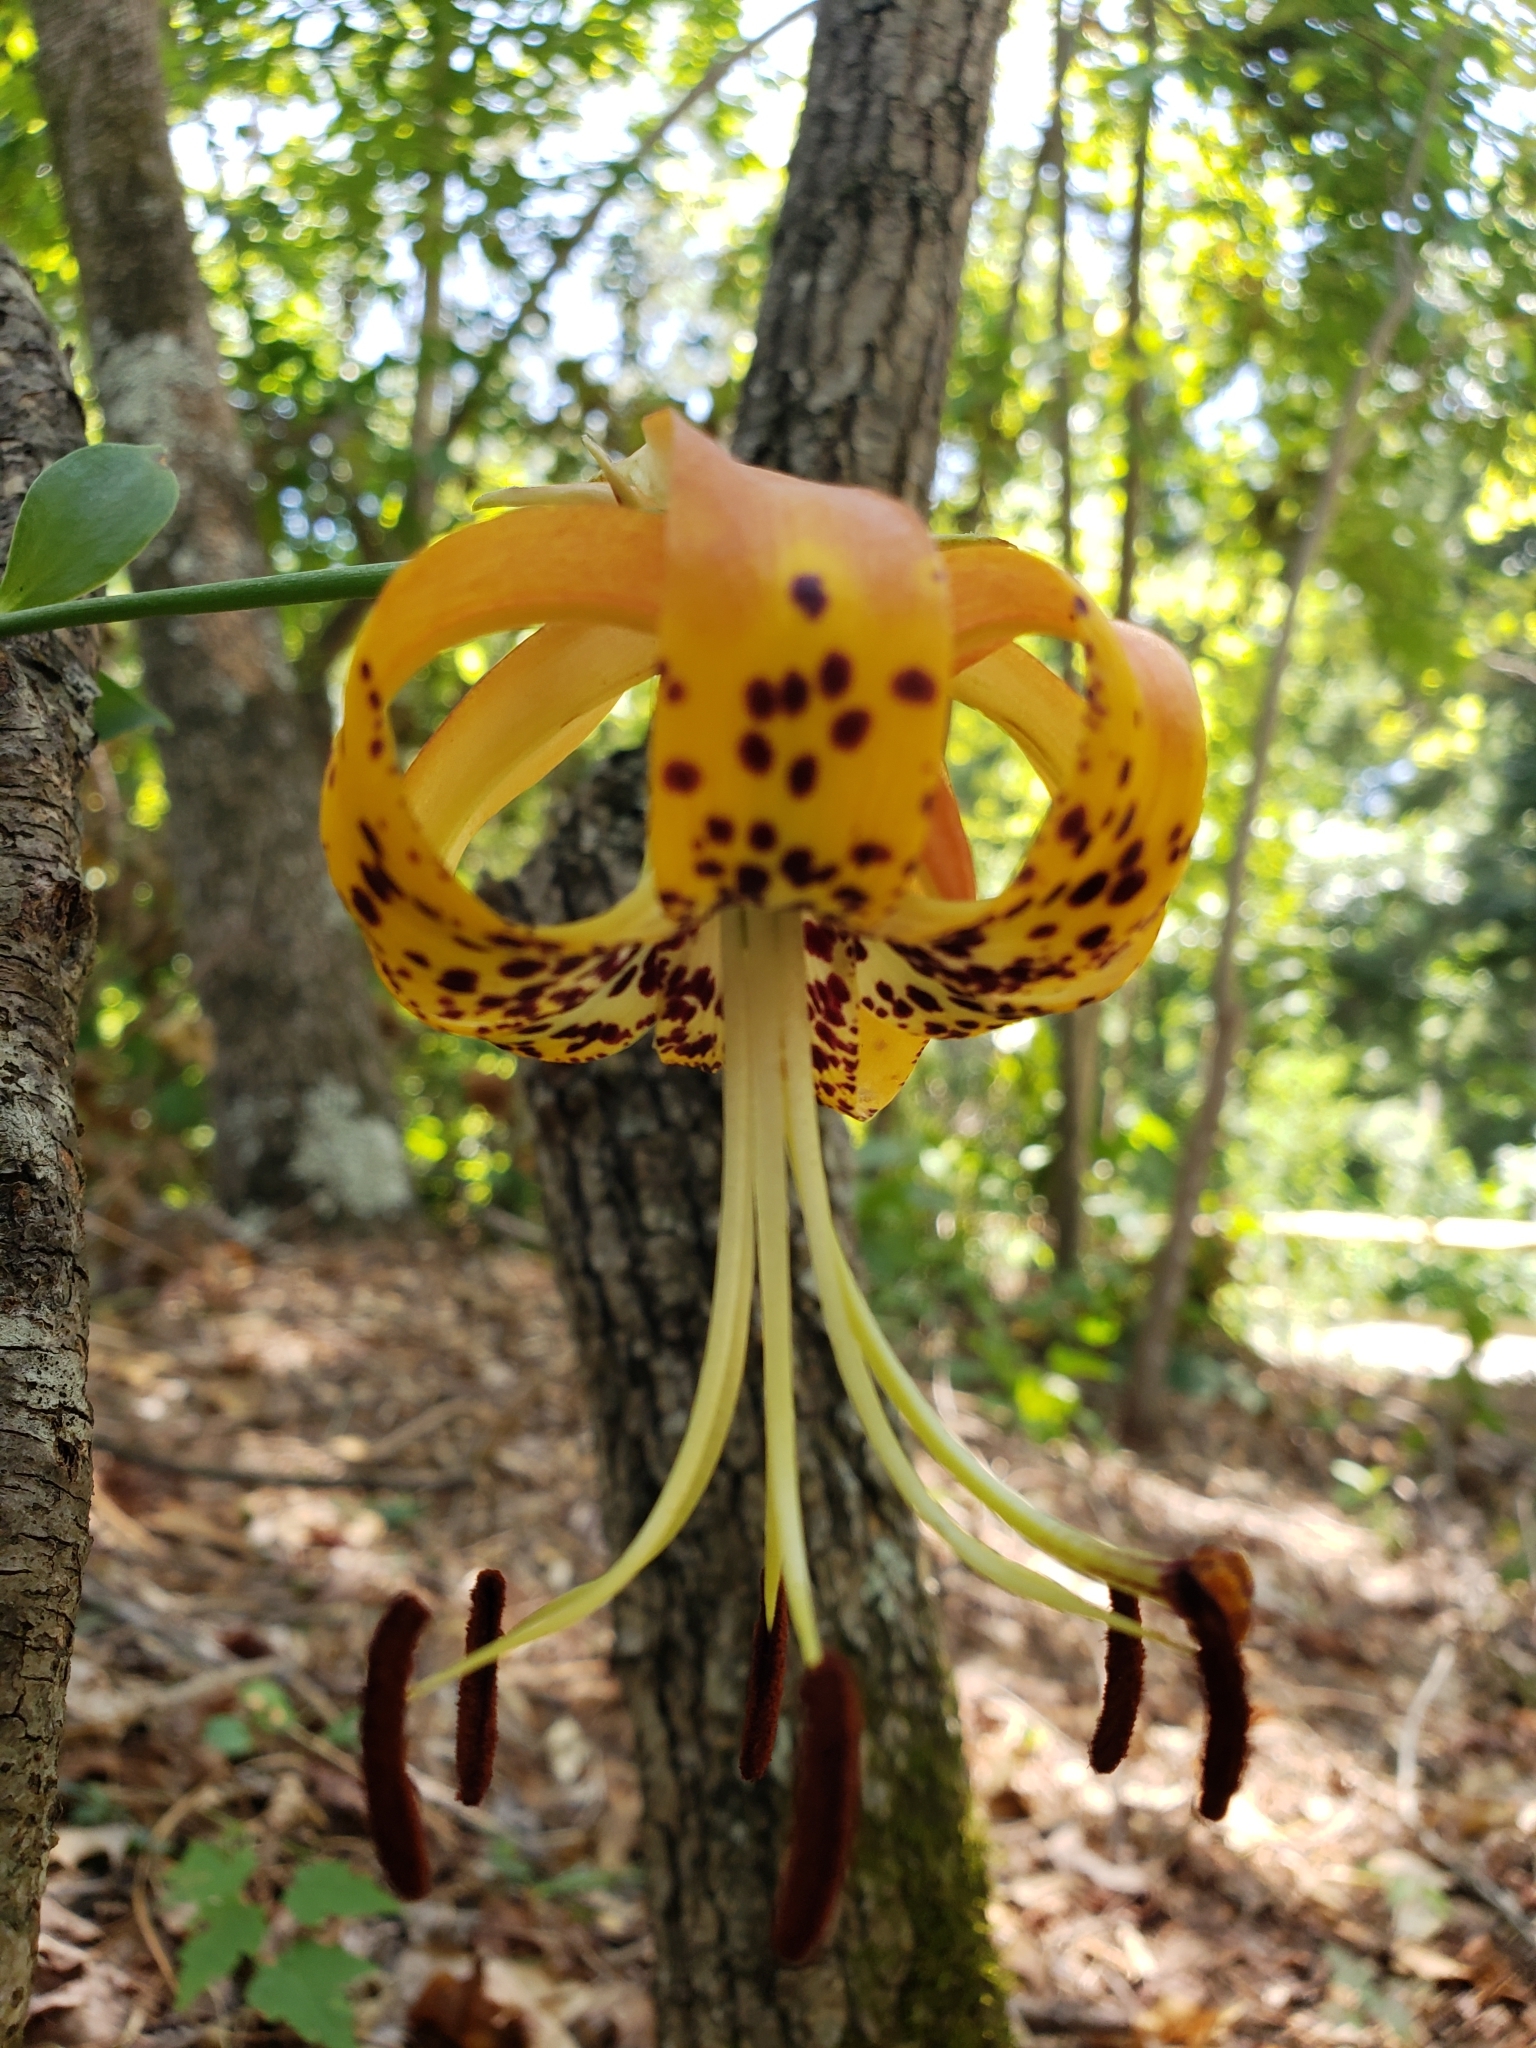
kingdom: Plantae
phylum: Tracheophyta
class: Liliopsida
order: Liliales
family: Liliaceae
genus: Lilium
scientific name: Lilium michauxii
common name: Carolina lily
